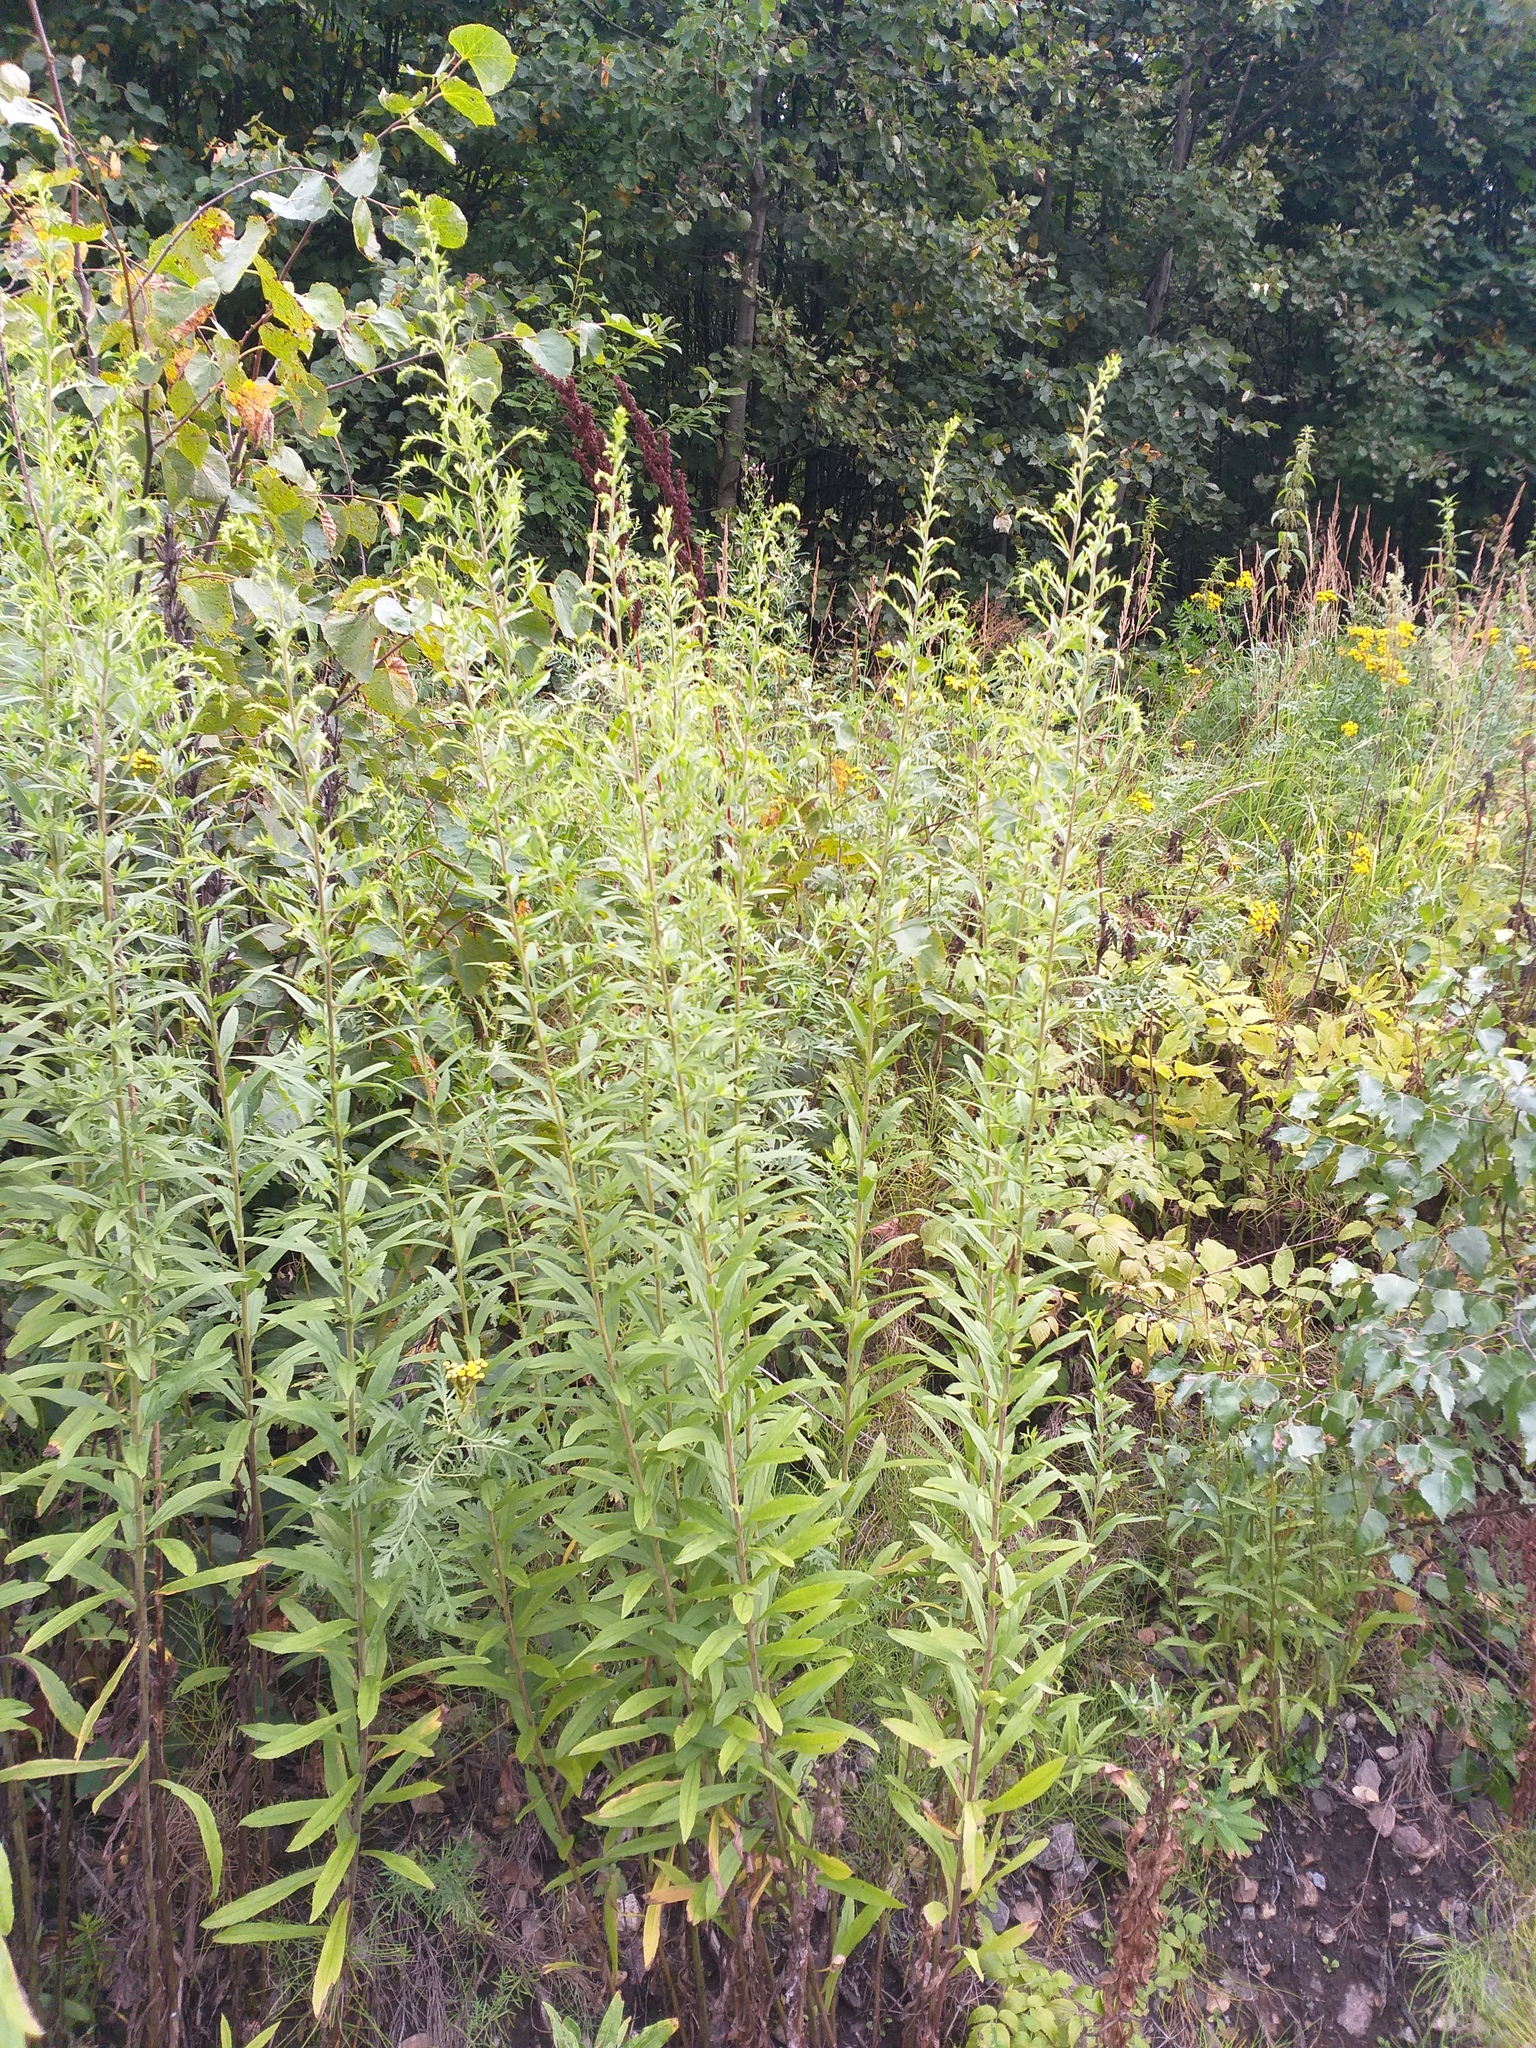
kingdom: Plantae
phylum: Tracheophyta
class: Magnoliopsida
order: Asterales
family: Asteraceae
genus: Solidago
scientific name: Solidago canadensis
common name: Canada goldenrod
